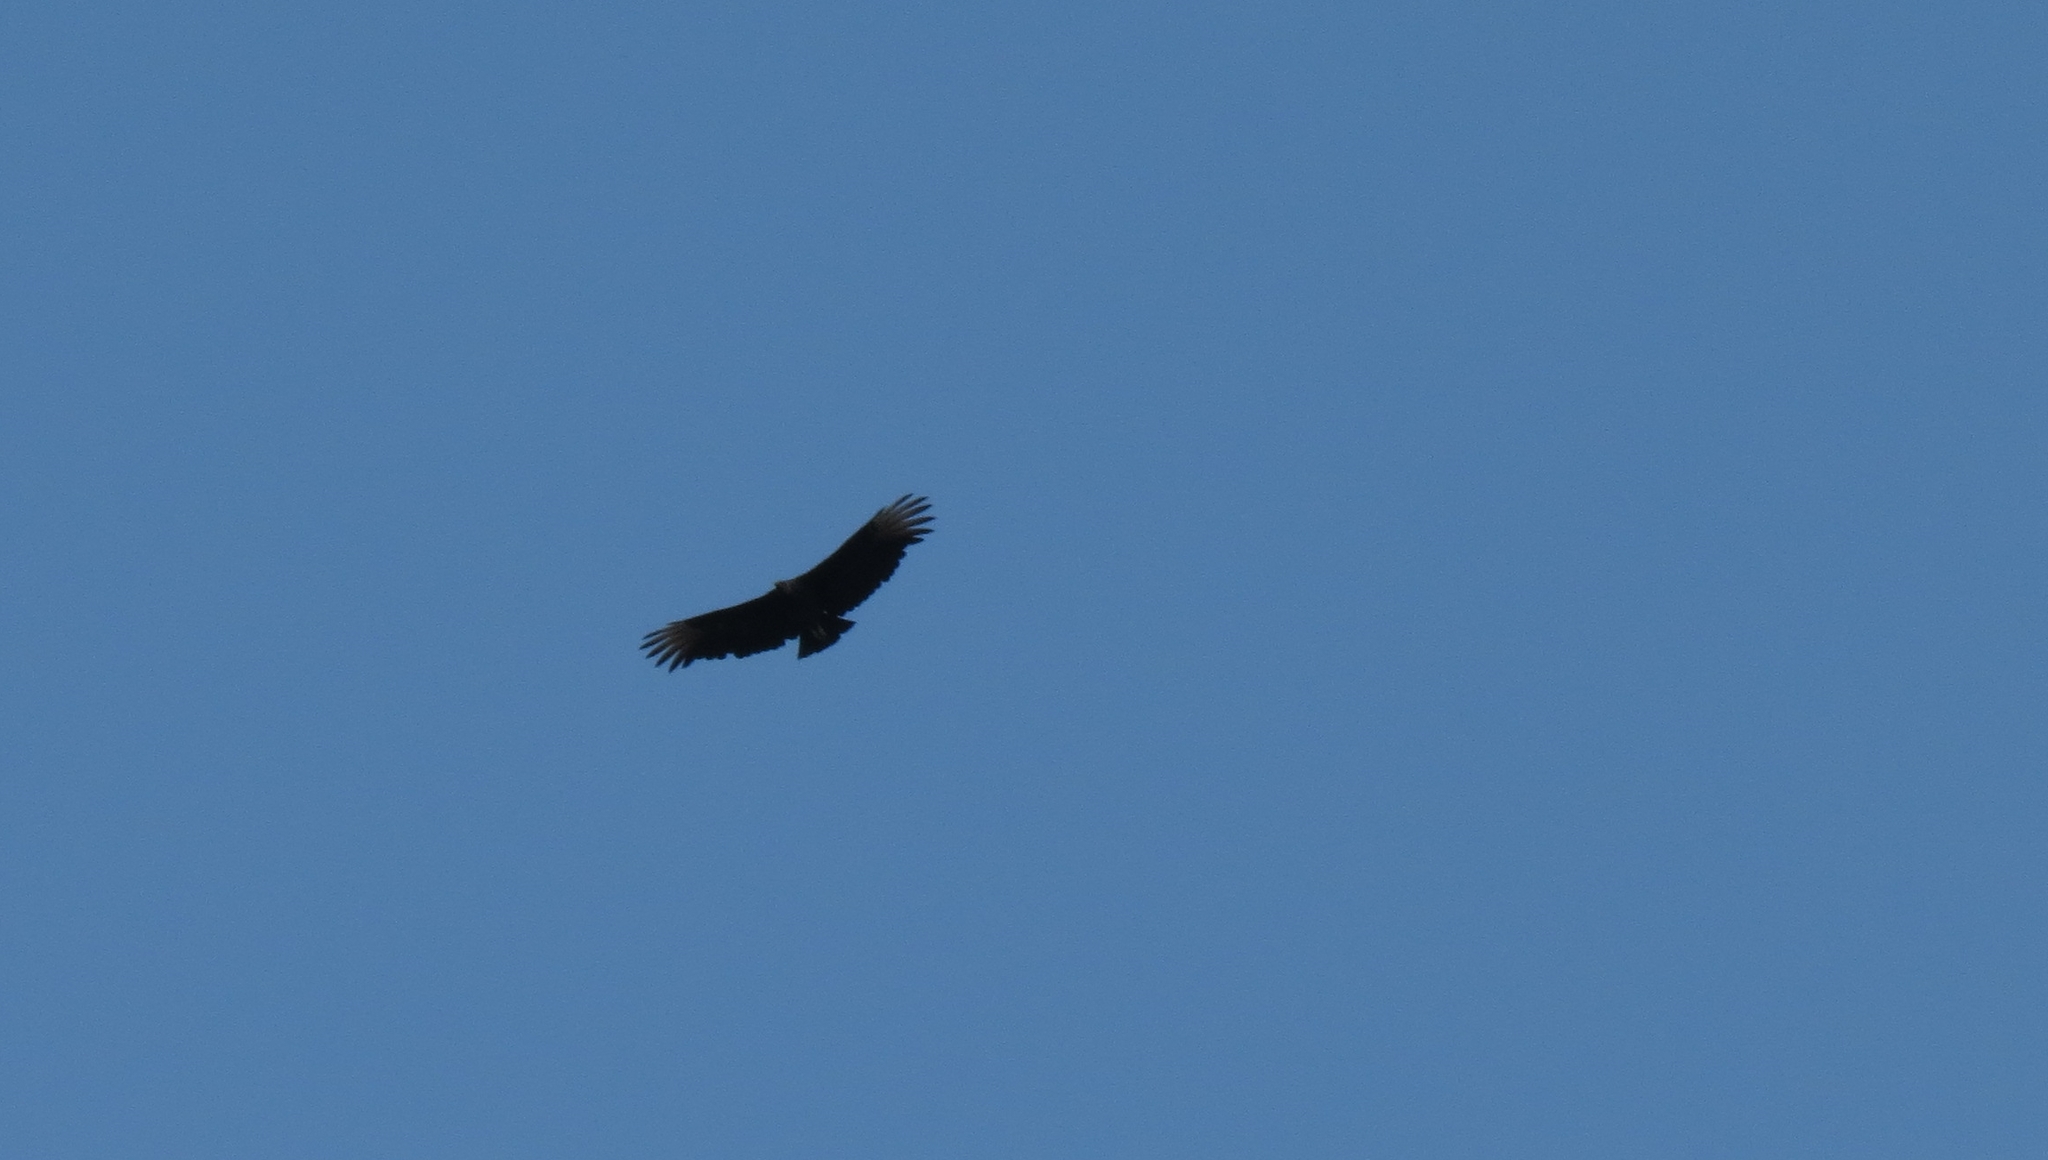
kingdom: Animalia
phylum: Chordata
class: Aves
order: Accipitriformes
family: Cathartidae
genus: Coragyps
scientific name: Coragyps atratus
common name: Black vulture
